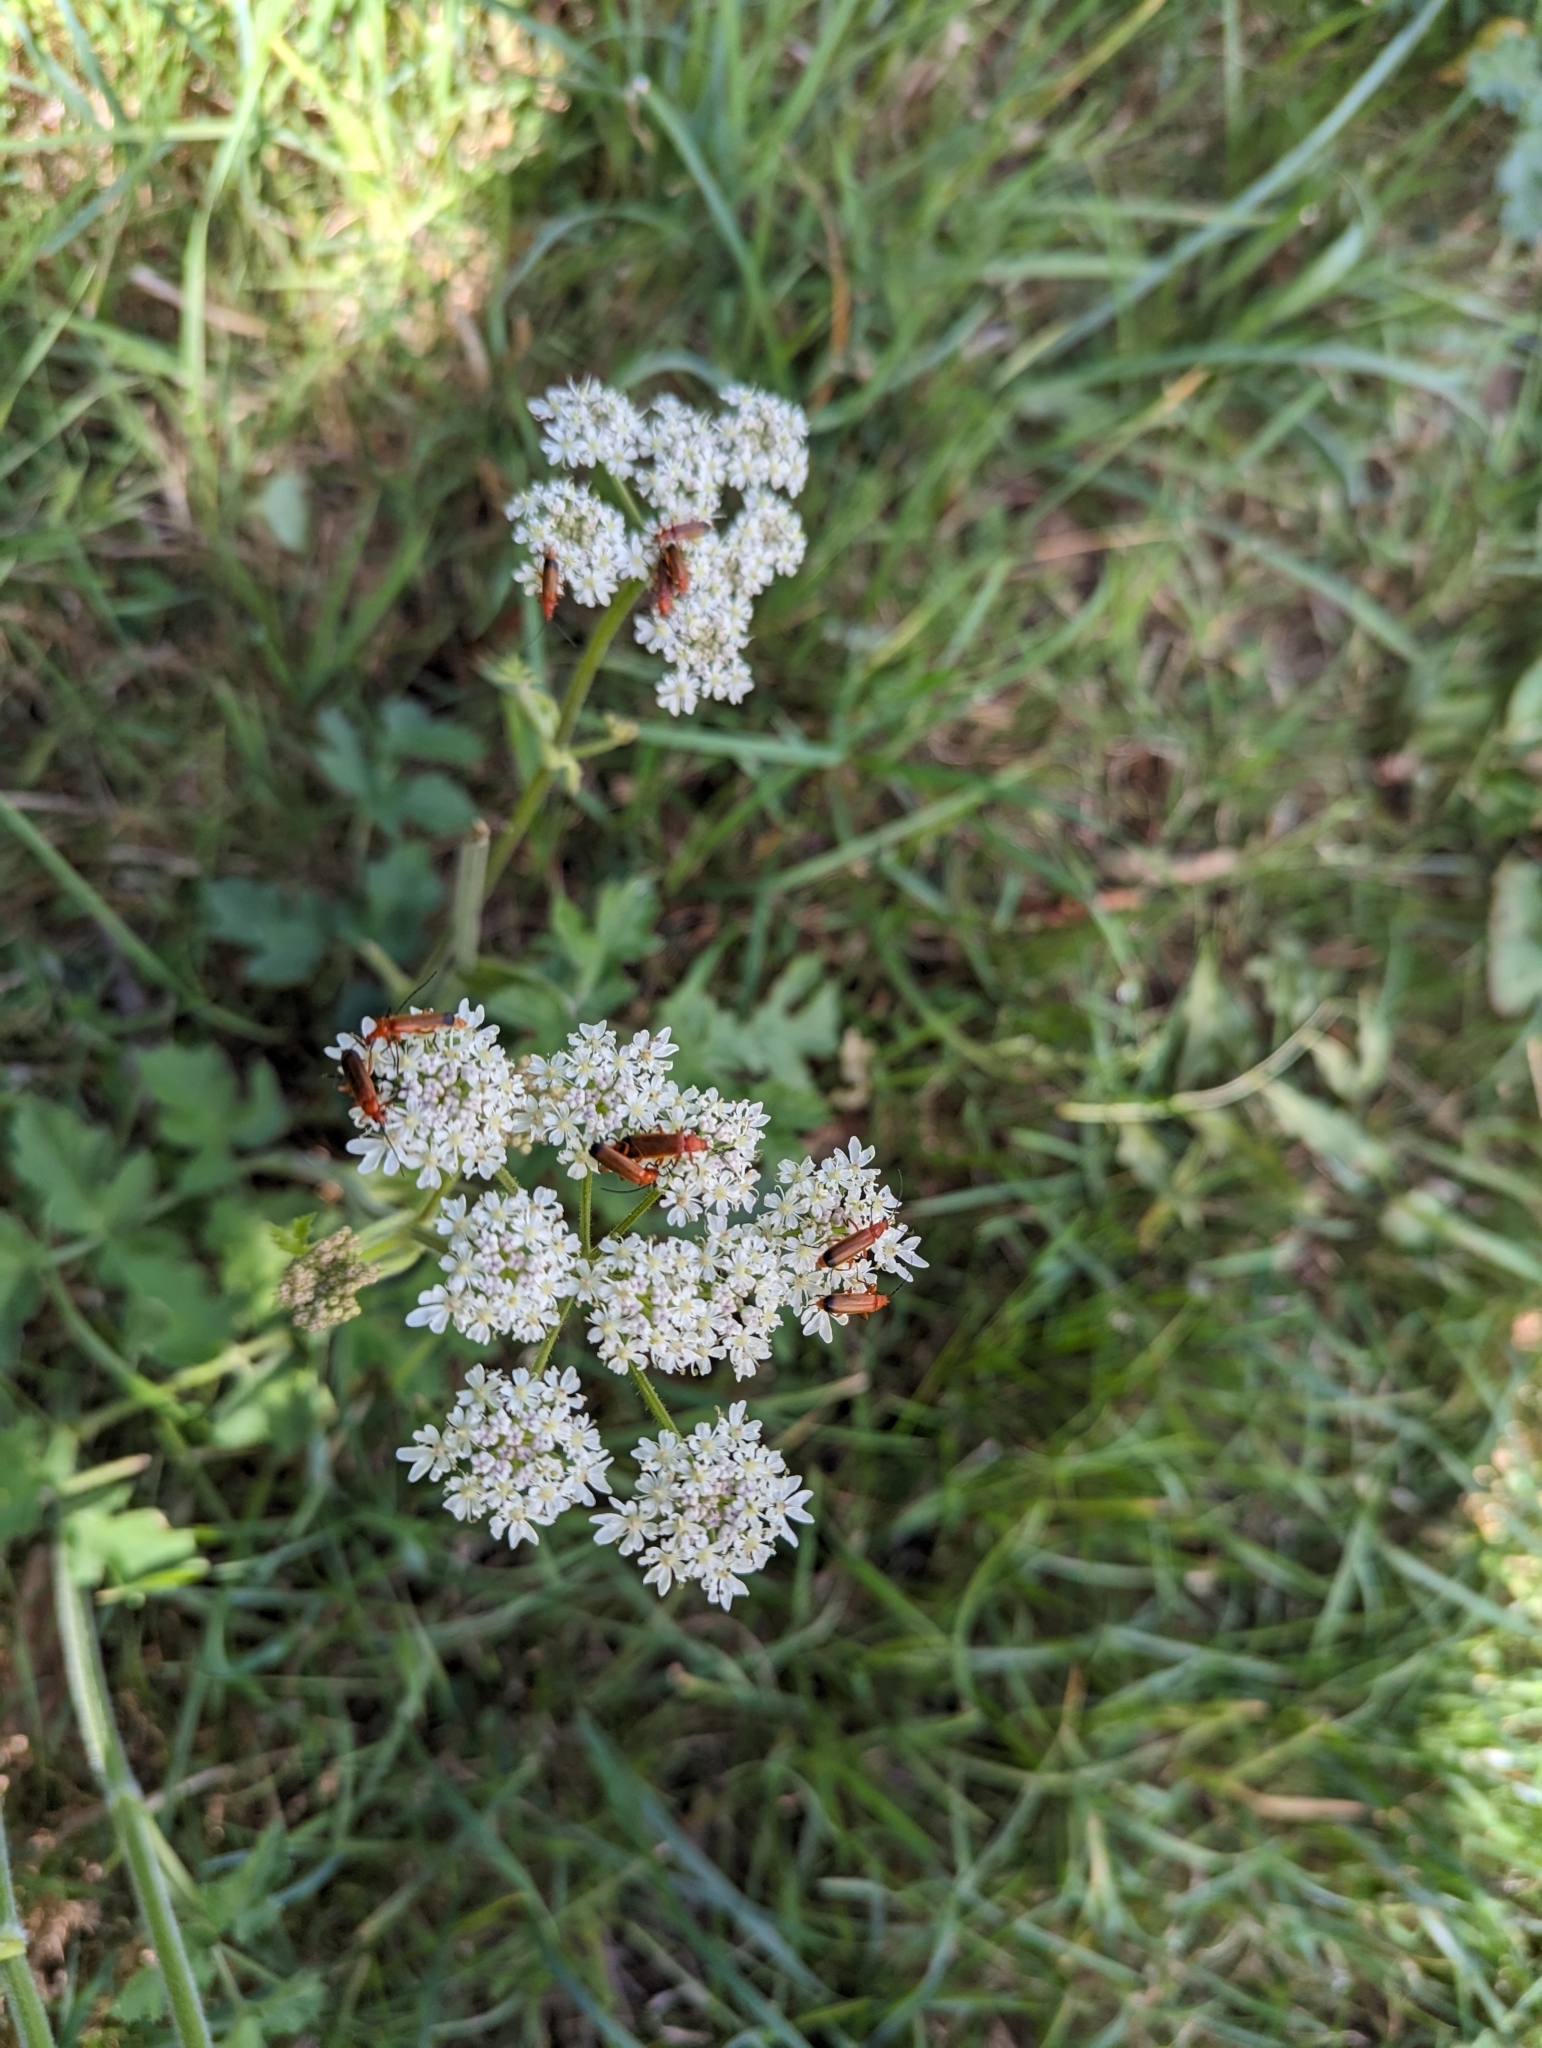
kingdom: Animalia
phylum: Arthropoda
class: Insecta
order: Coleoptera
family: Cantharidae
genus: Rhagonycha
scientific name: Rhagonycha fulva
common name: Common red soldier beetle
